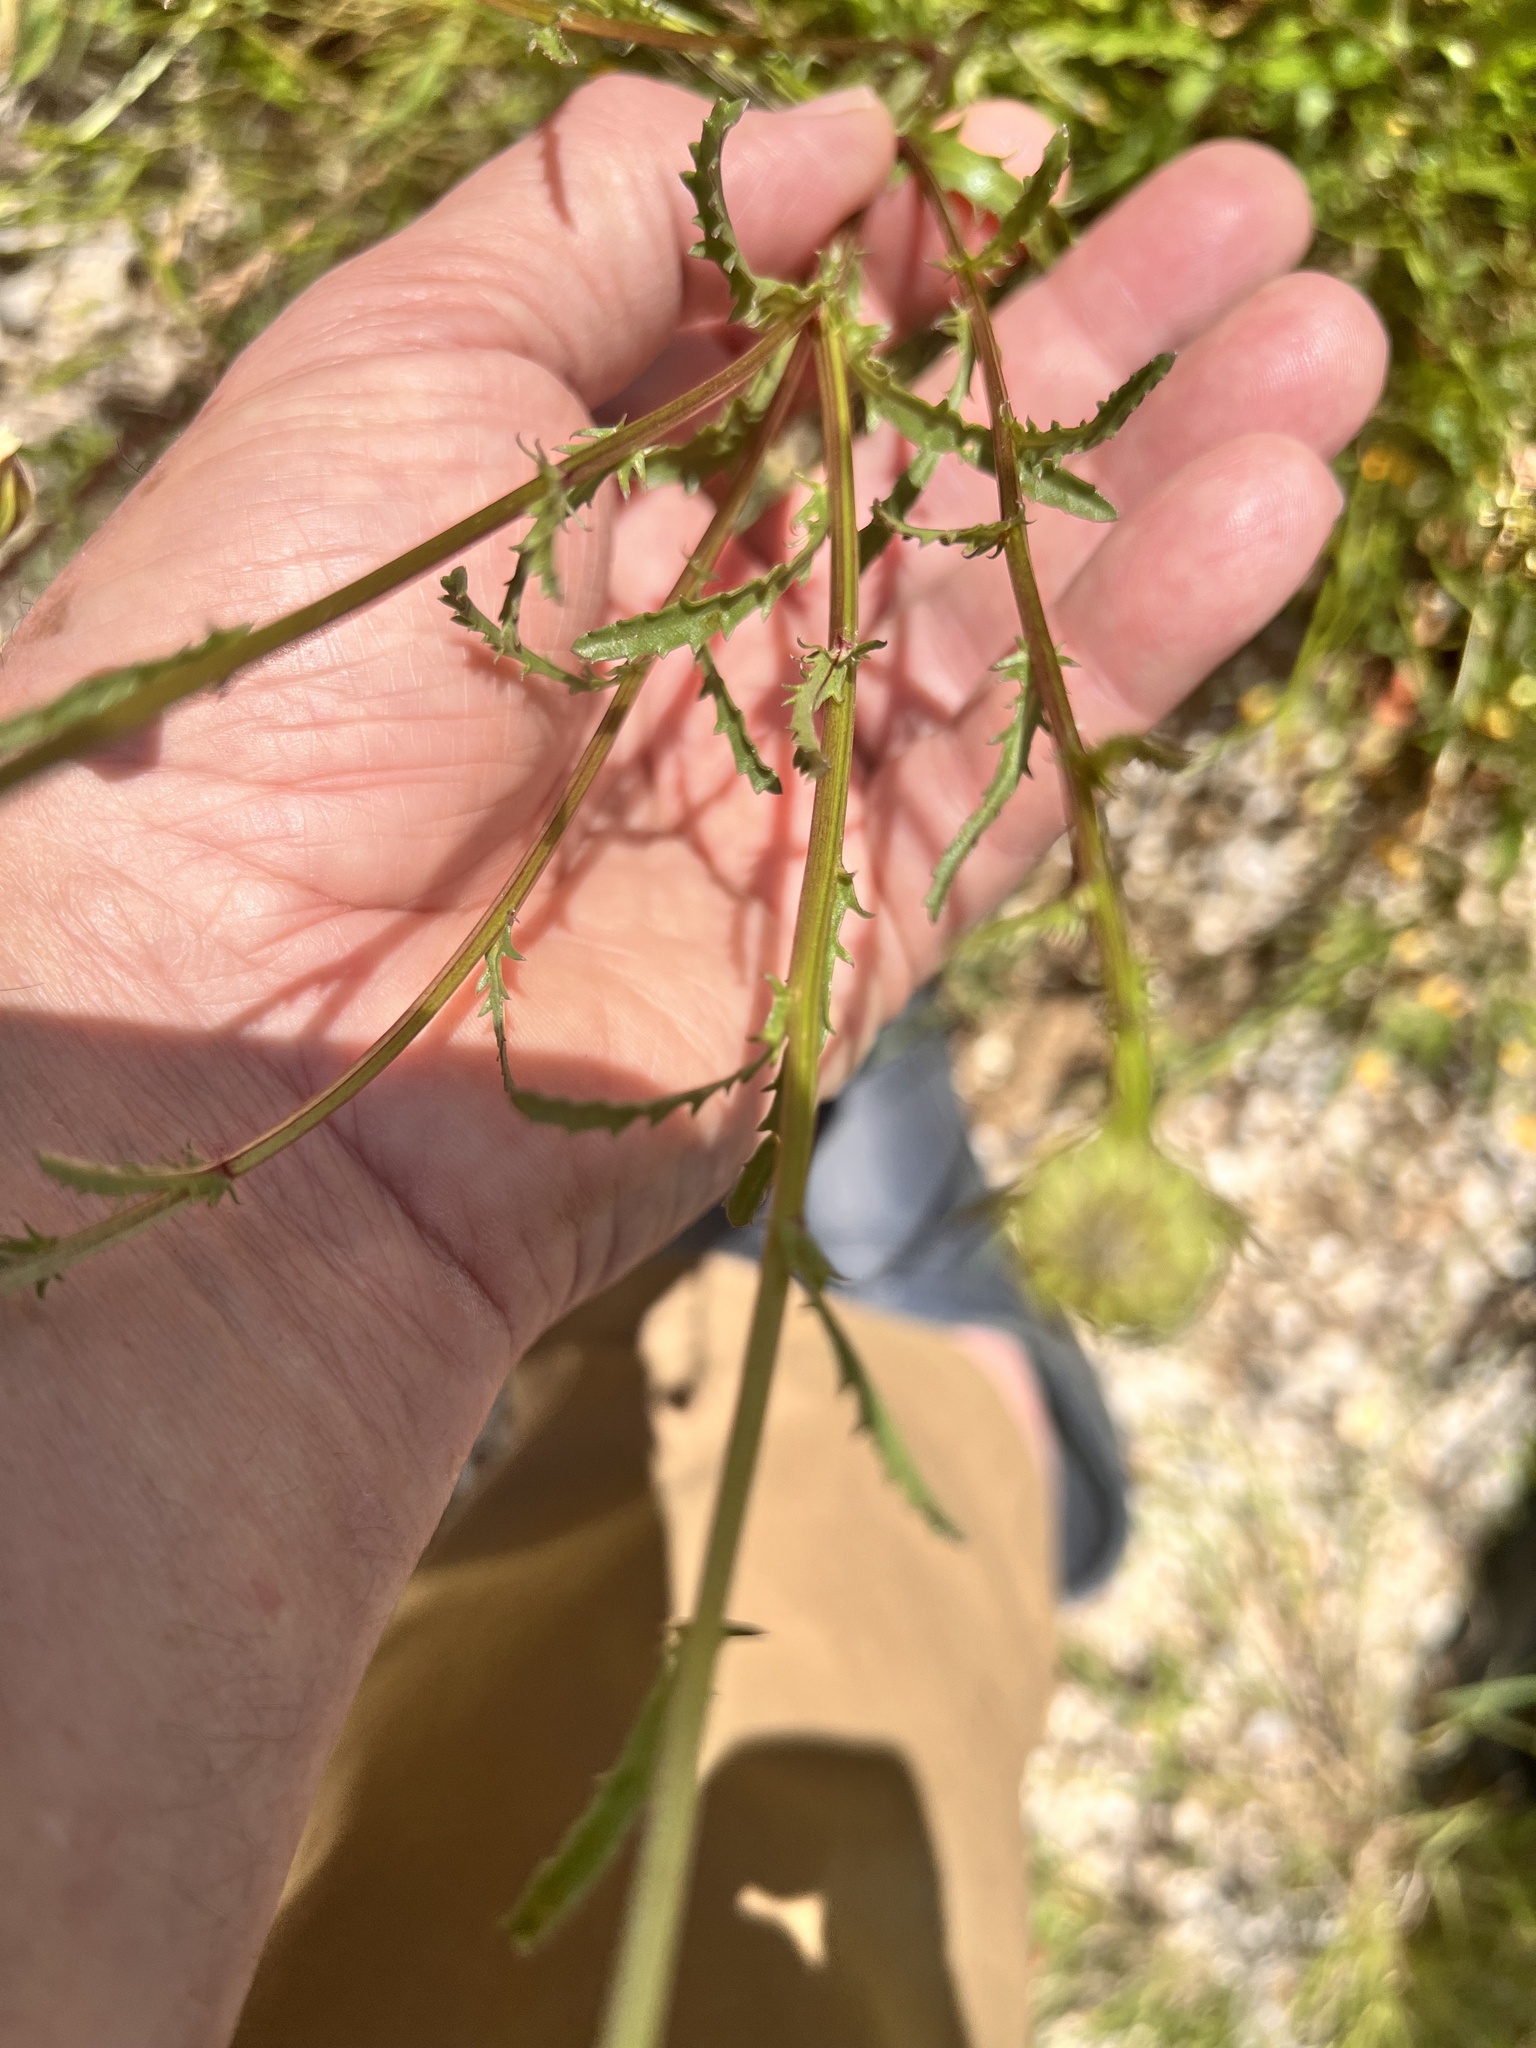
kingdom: Plantae
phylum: Tracheophyta
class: Magnoliopsida
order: Asterales
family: Asteraceae
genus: Leucanthemum
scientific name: Leucanthemum vulgare
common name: Oxeye daisy
